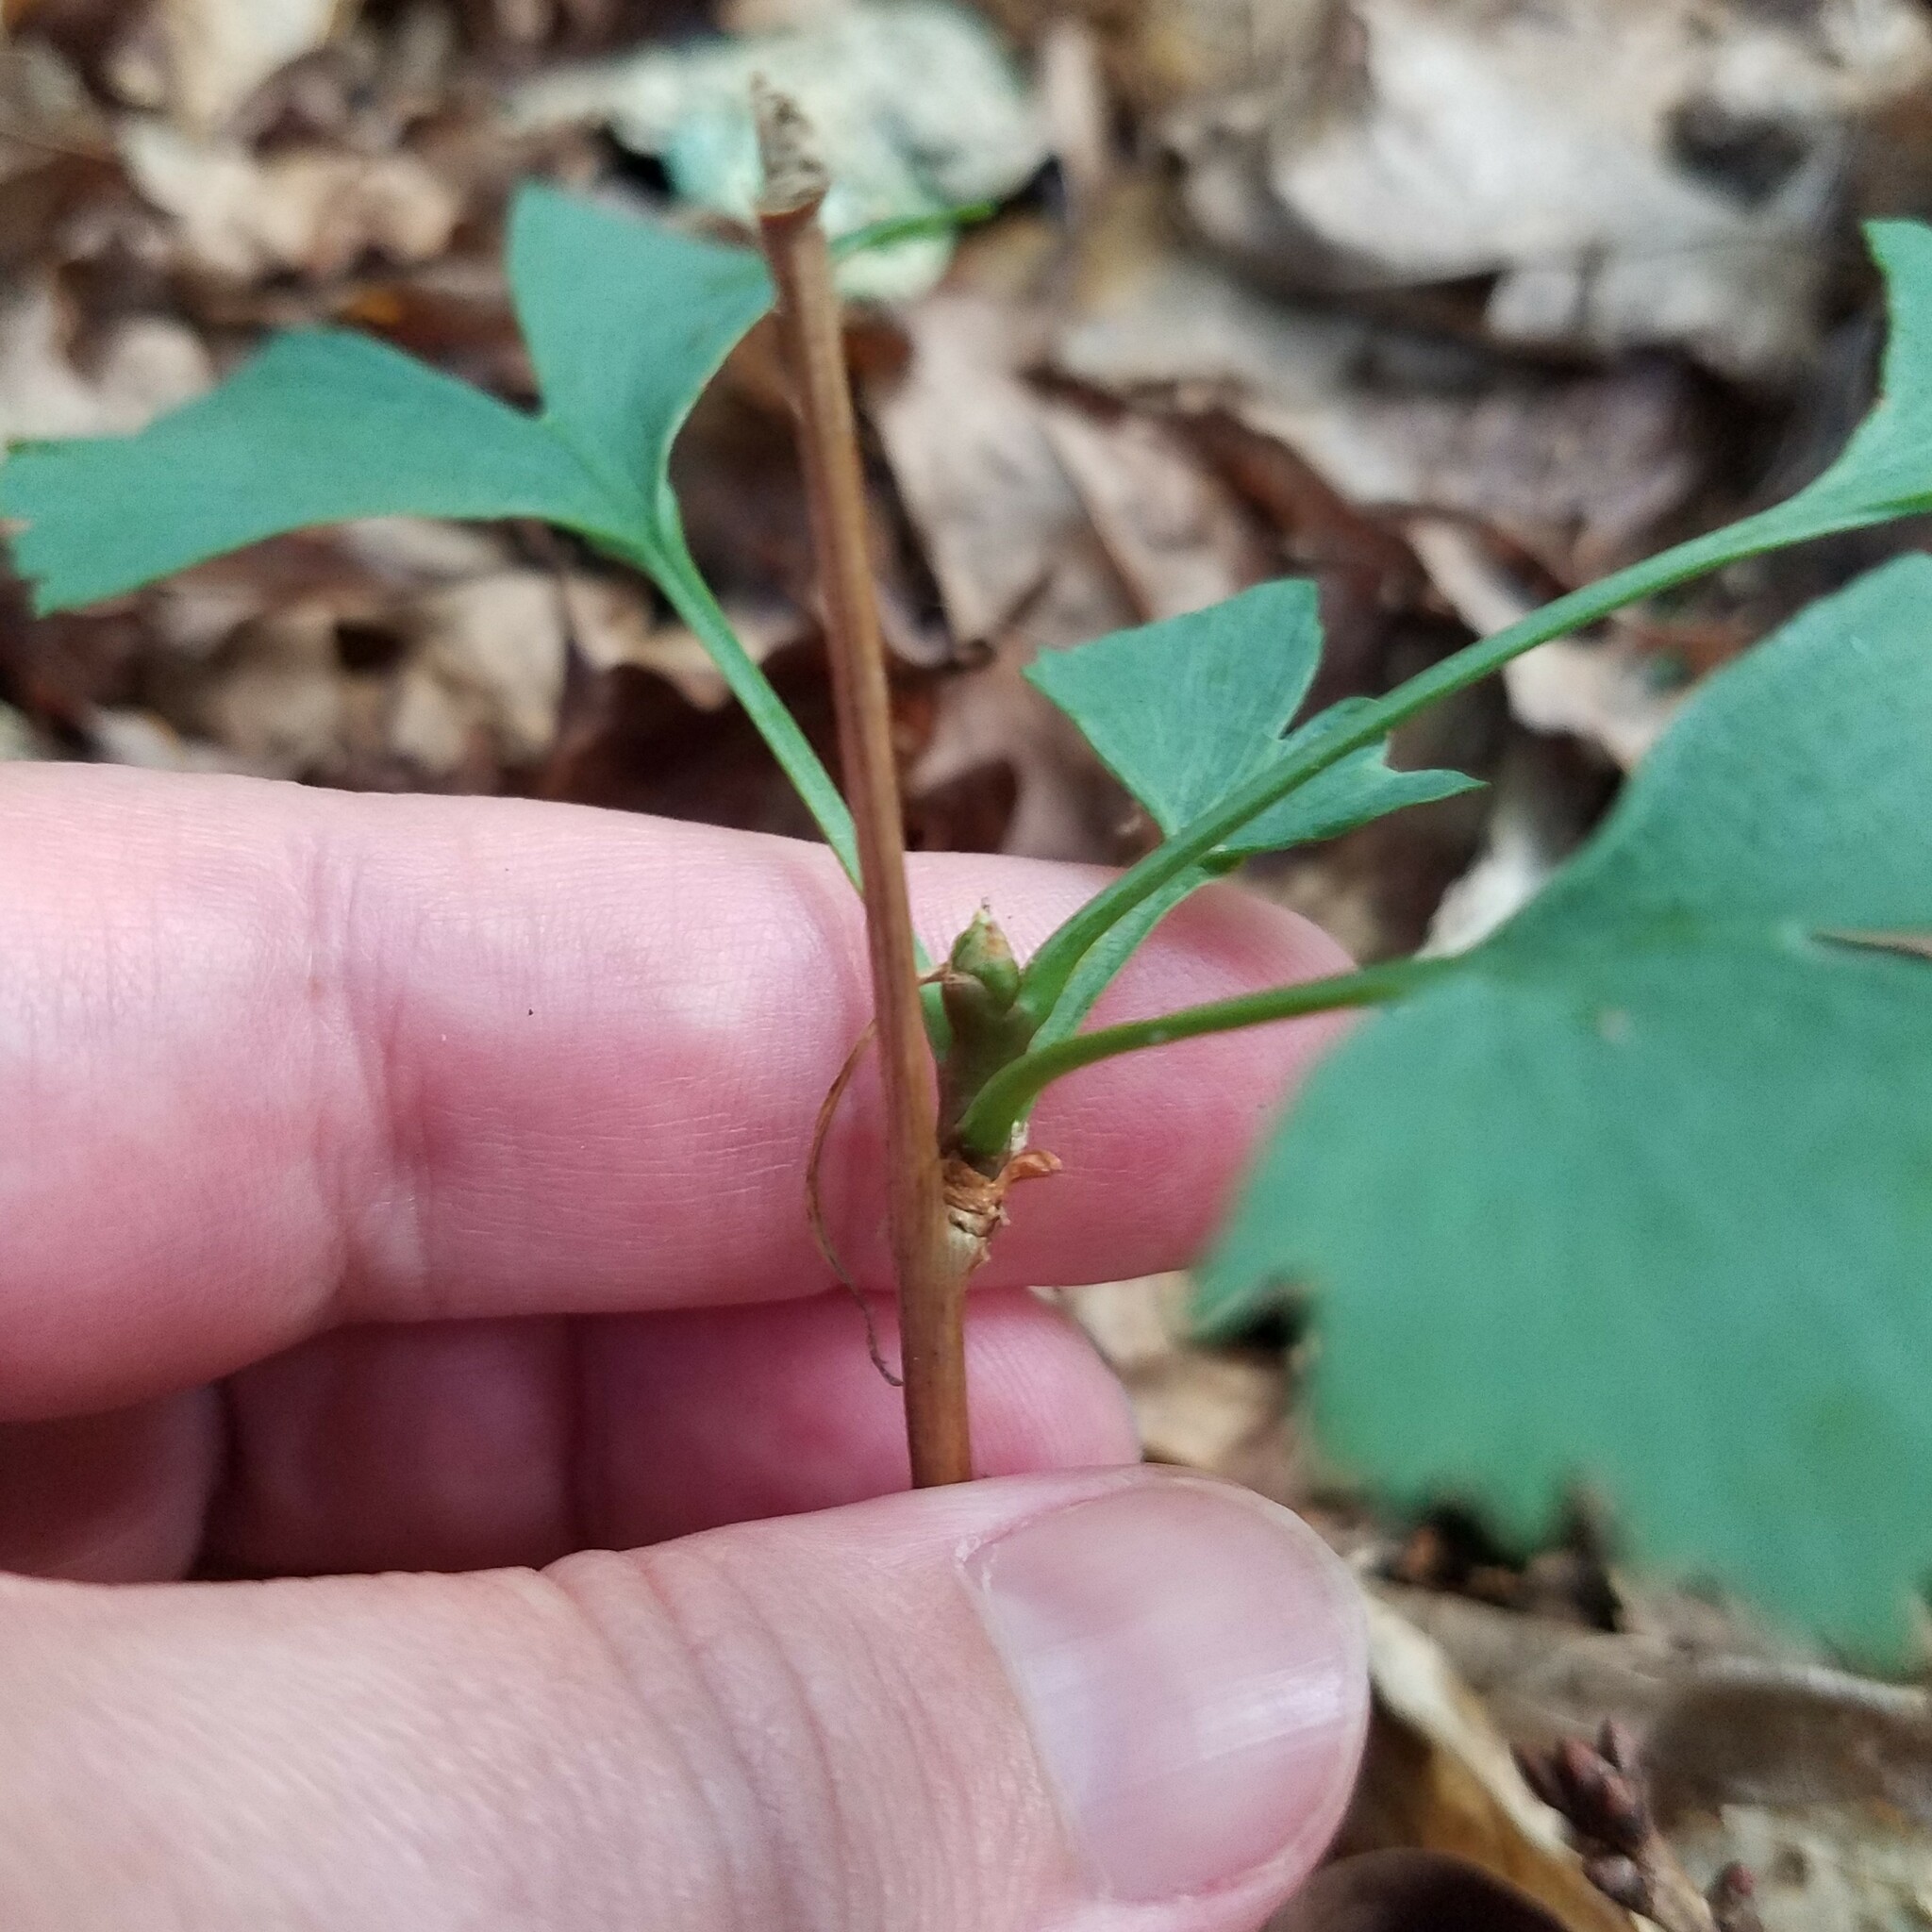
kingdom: Plantae
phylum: Tracheophyta
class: Ginkgoopsida
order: Ginkgoales
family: Ginkgoaceae
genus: Ginkgo
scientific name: Ginkgo biloba
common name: Ginkgo
